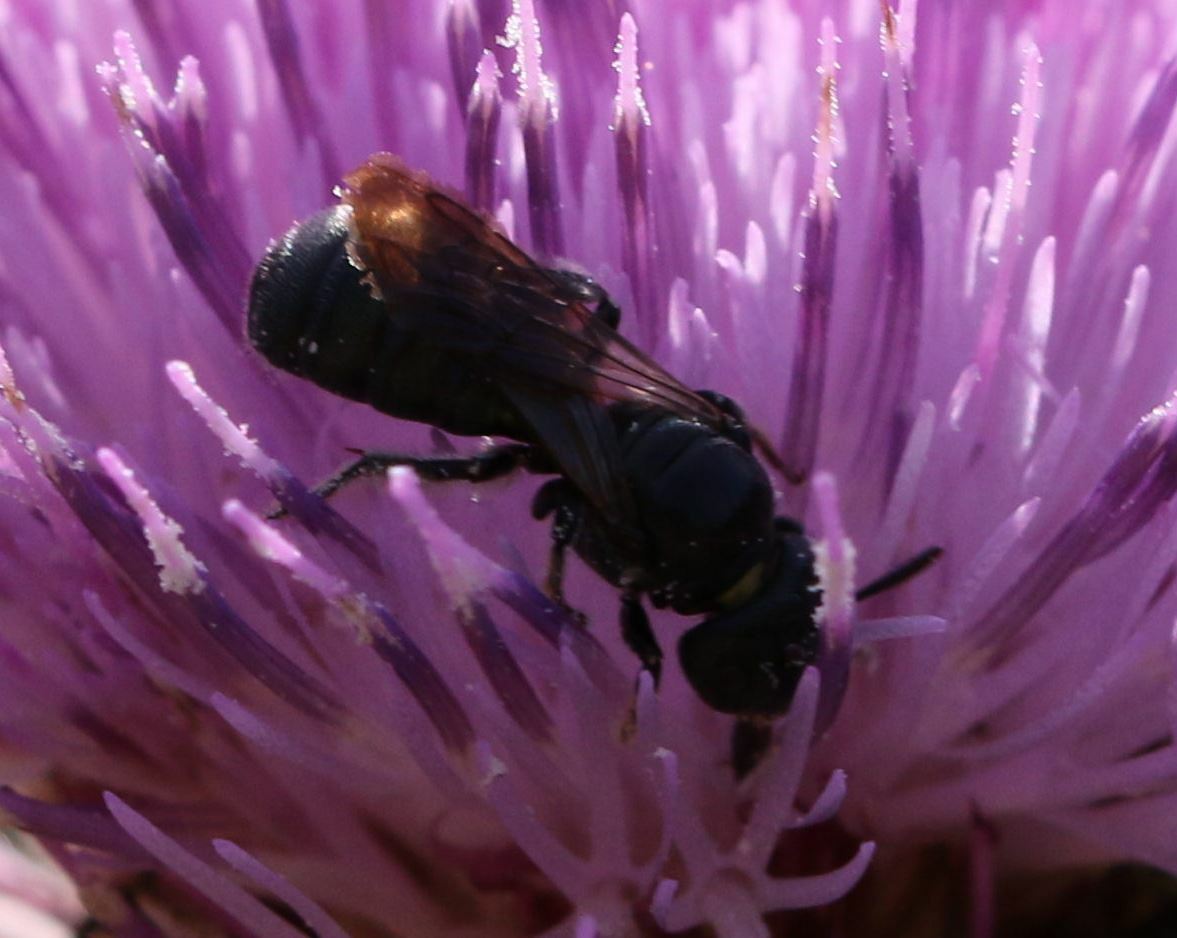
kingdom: Animalia
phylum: Arthropoda
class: Insecta
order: Hymenoptera
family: Apidae
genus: Ceratina
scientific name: Ceratina cucurbitina
